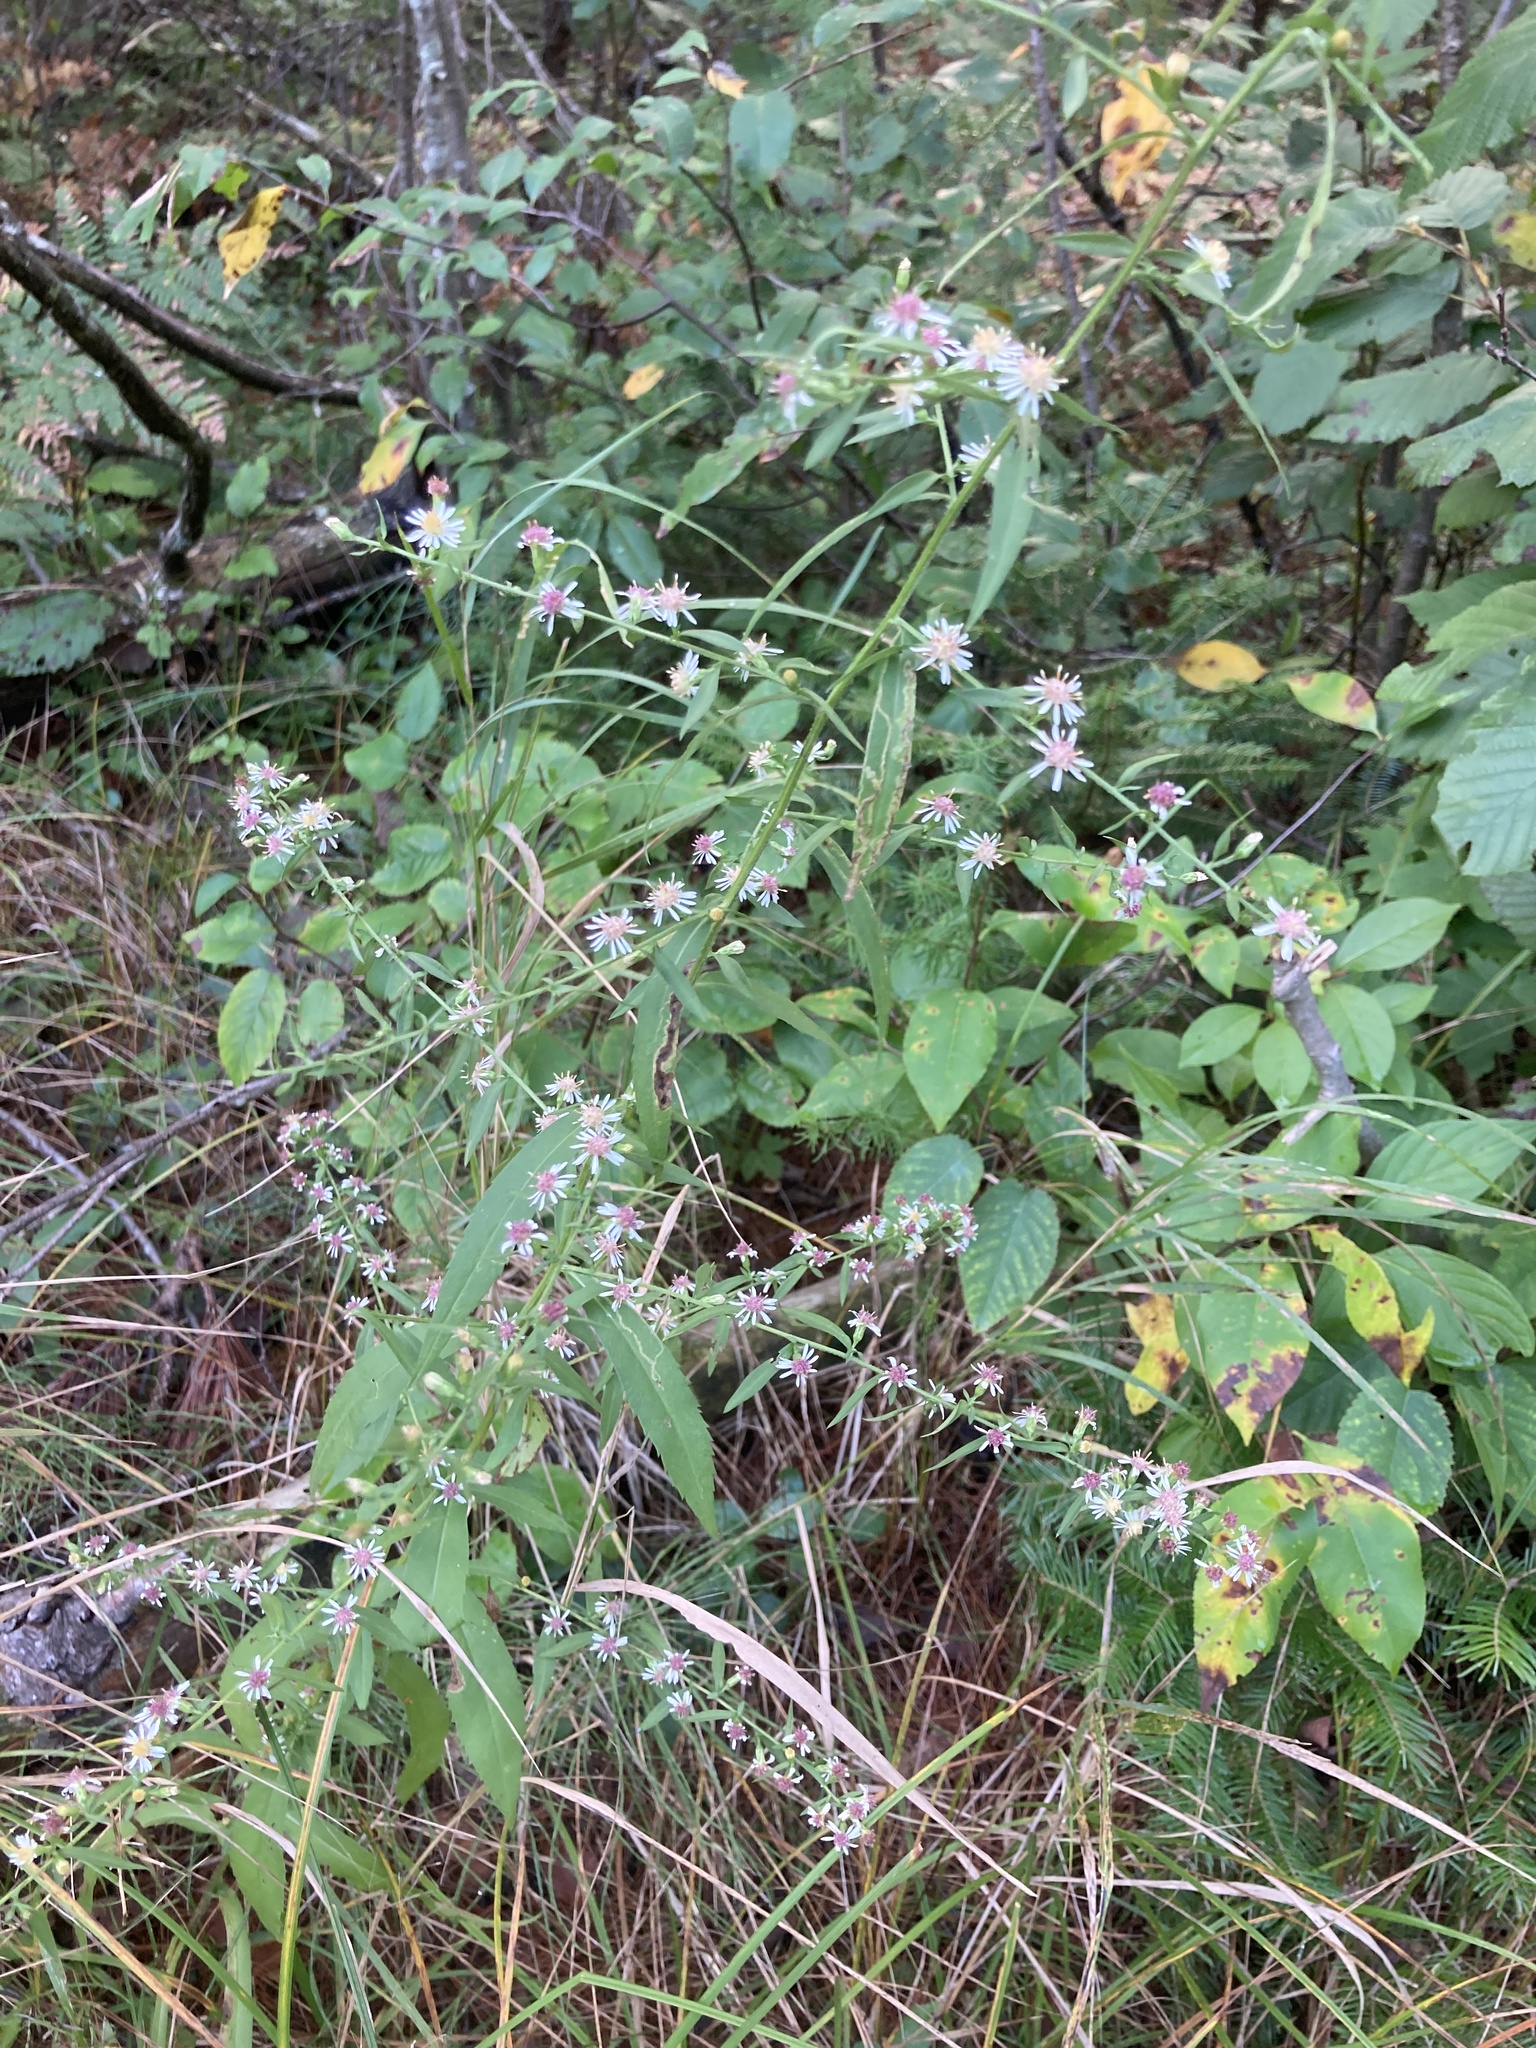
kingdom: Plantae
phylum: Tracheophyta
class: Magnoliopsida
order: Asterales
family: Asteraceae
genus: Symphyotrichum
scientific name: Symphyotrichum lateriflorum
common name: Calico aster
